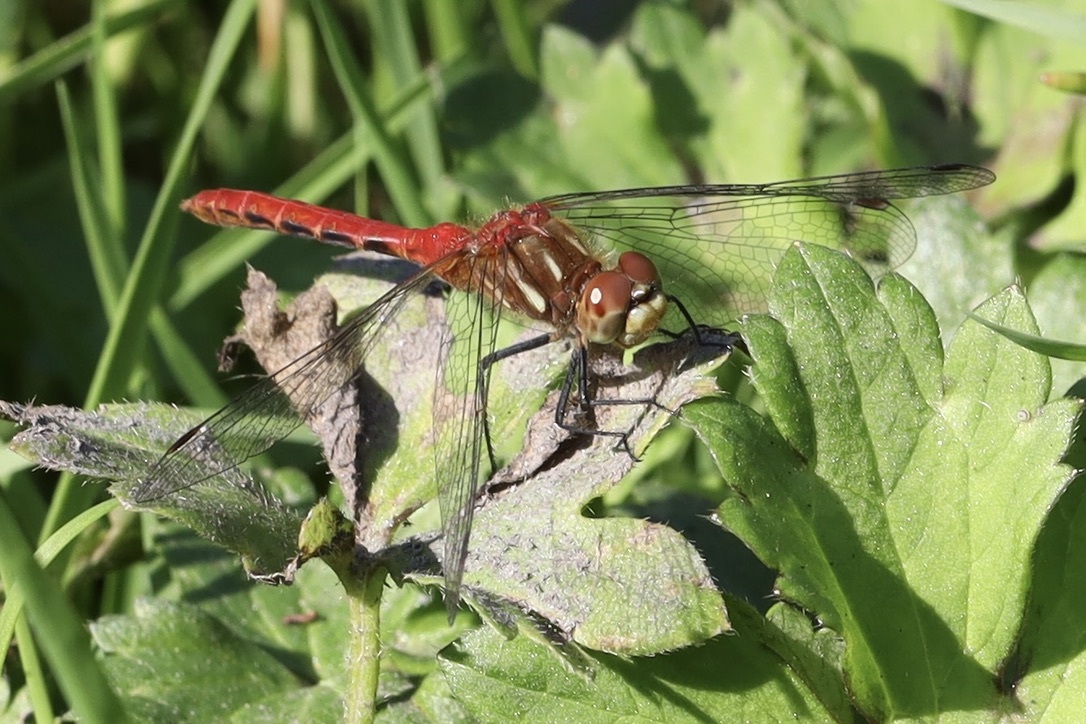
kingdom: Animalia
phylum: Arthropoda
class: Insecta
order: Odonata
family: Libellulidae
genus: Sympetrum
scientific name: Sympetrum pallipes
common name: Striped meadowhawk
